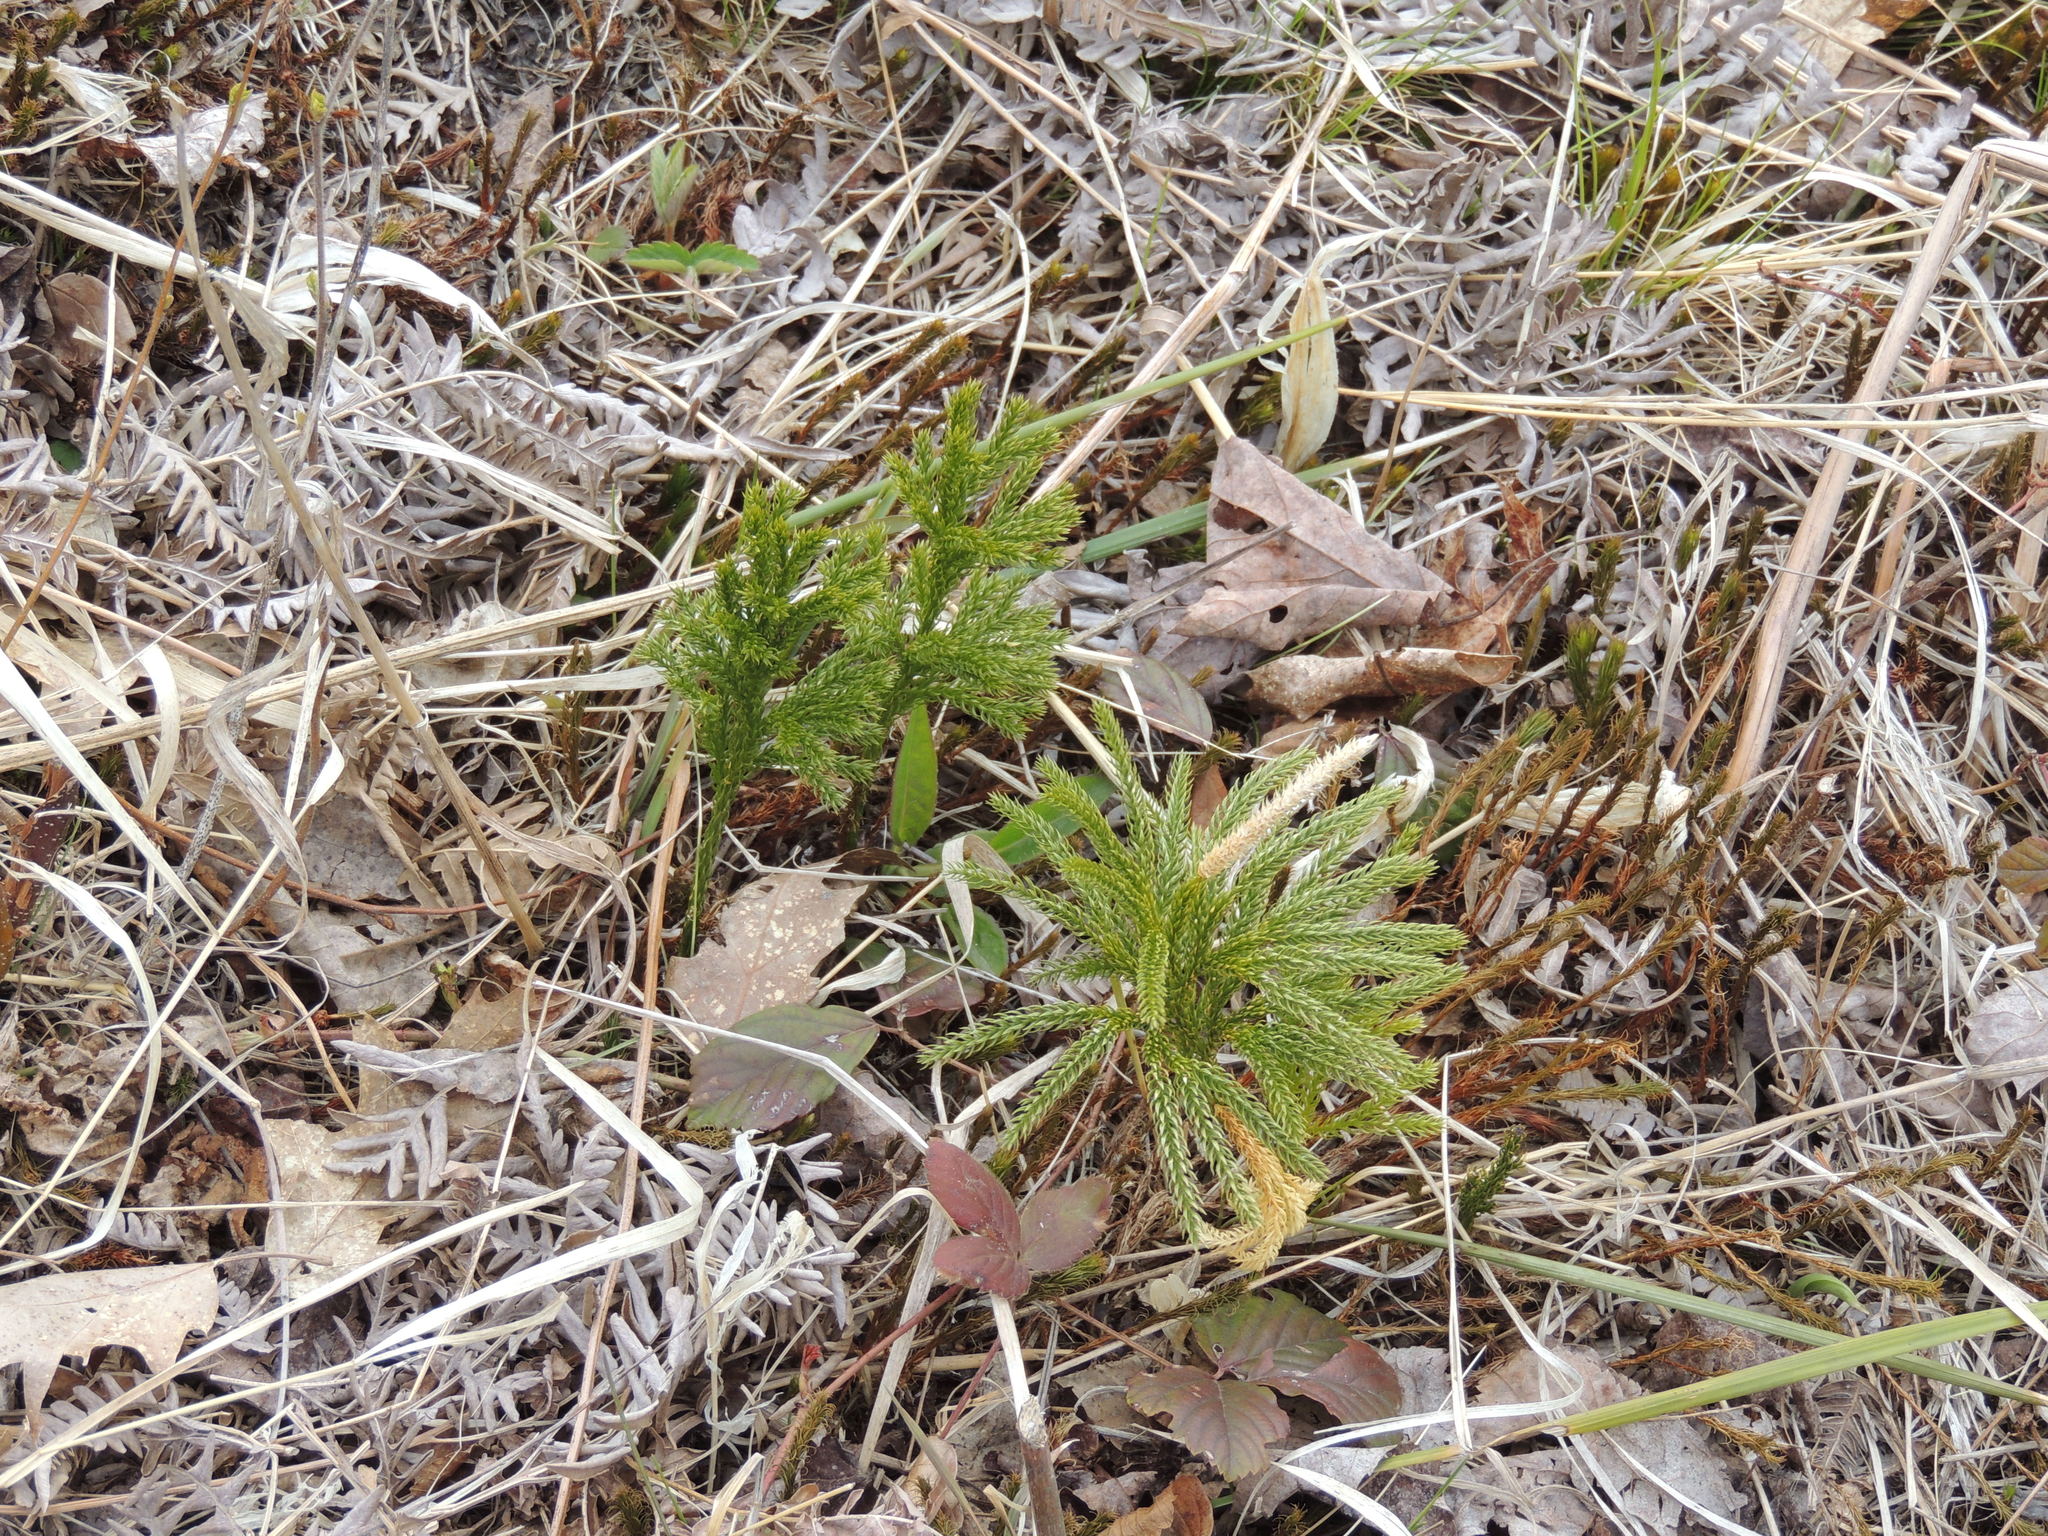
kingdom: Plantae
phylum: Tracheophyta
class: Lycopodiopsida
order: Lycopodiales
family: Lycopodiaceae
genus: Dendrolycopodium
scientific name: Dendrolycopodium hickeyi
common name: Hickey's clubmoss
